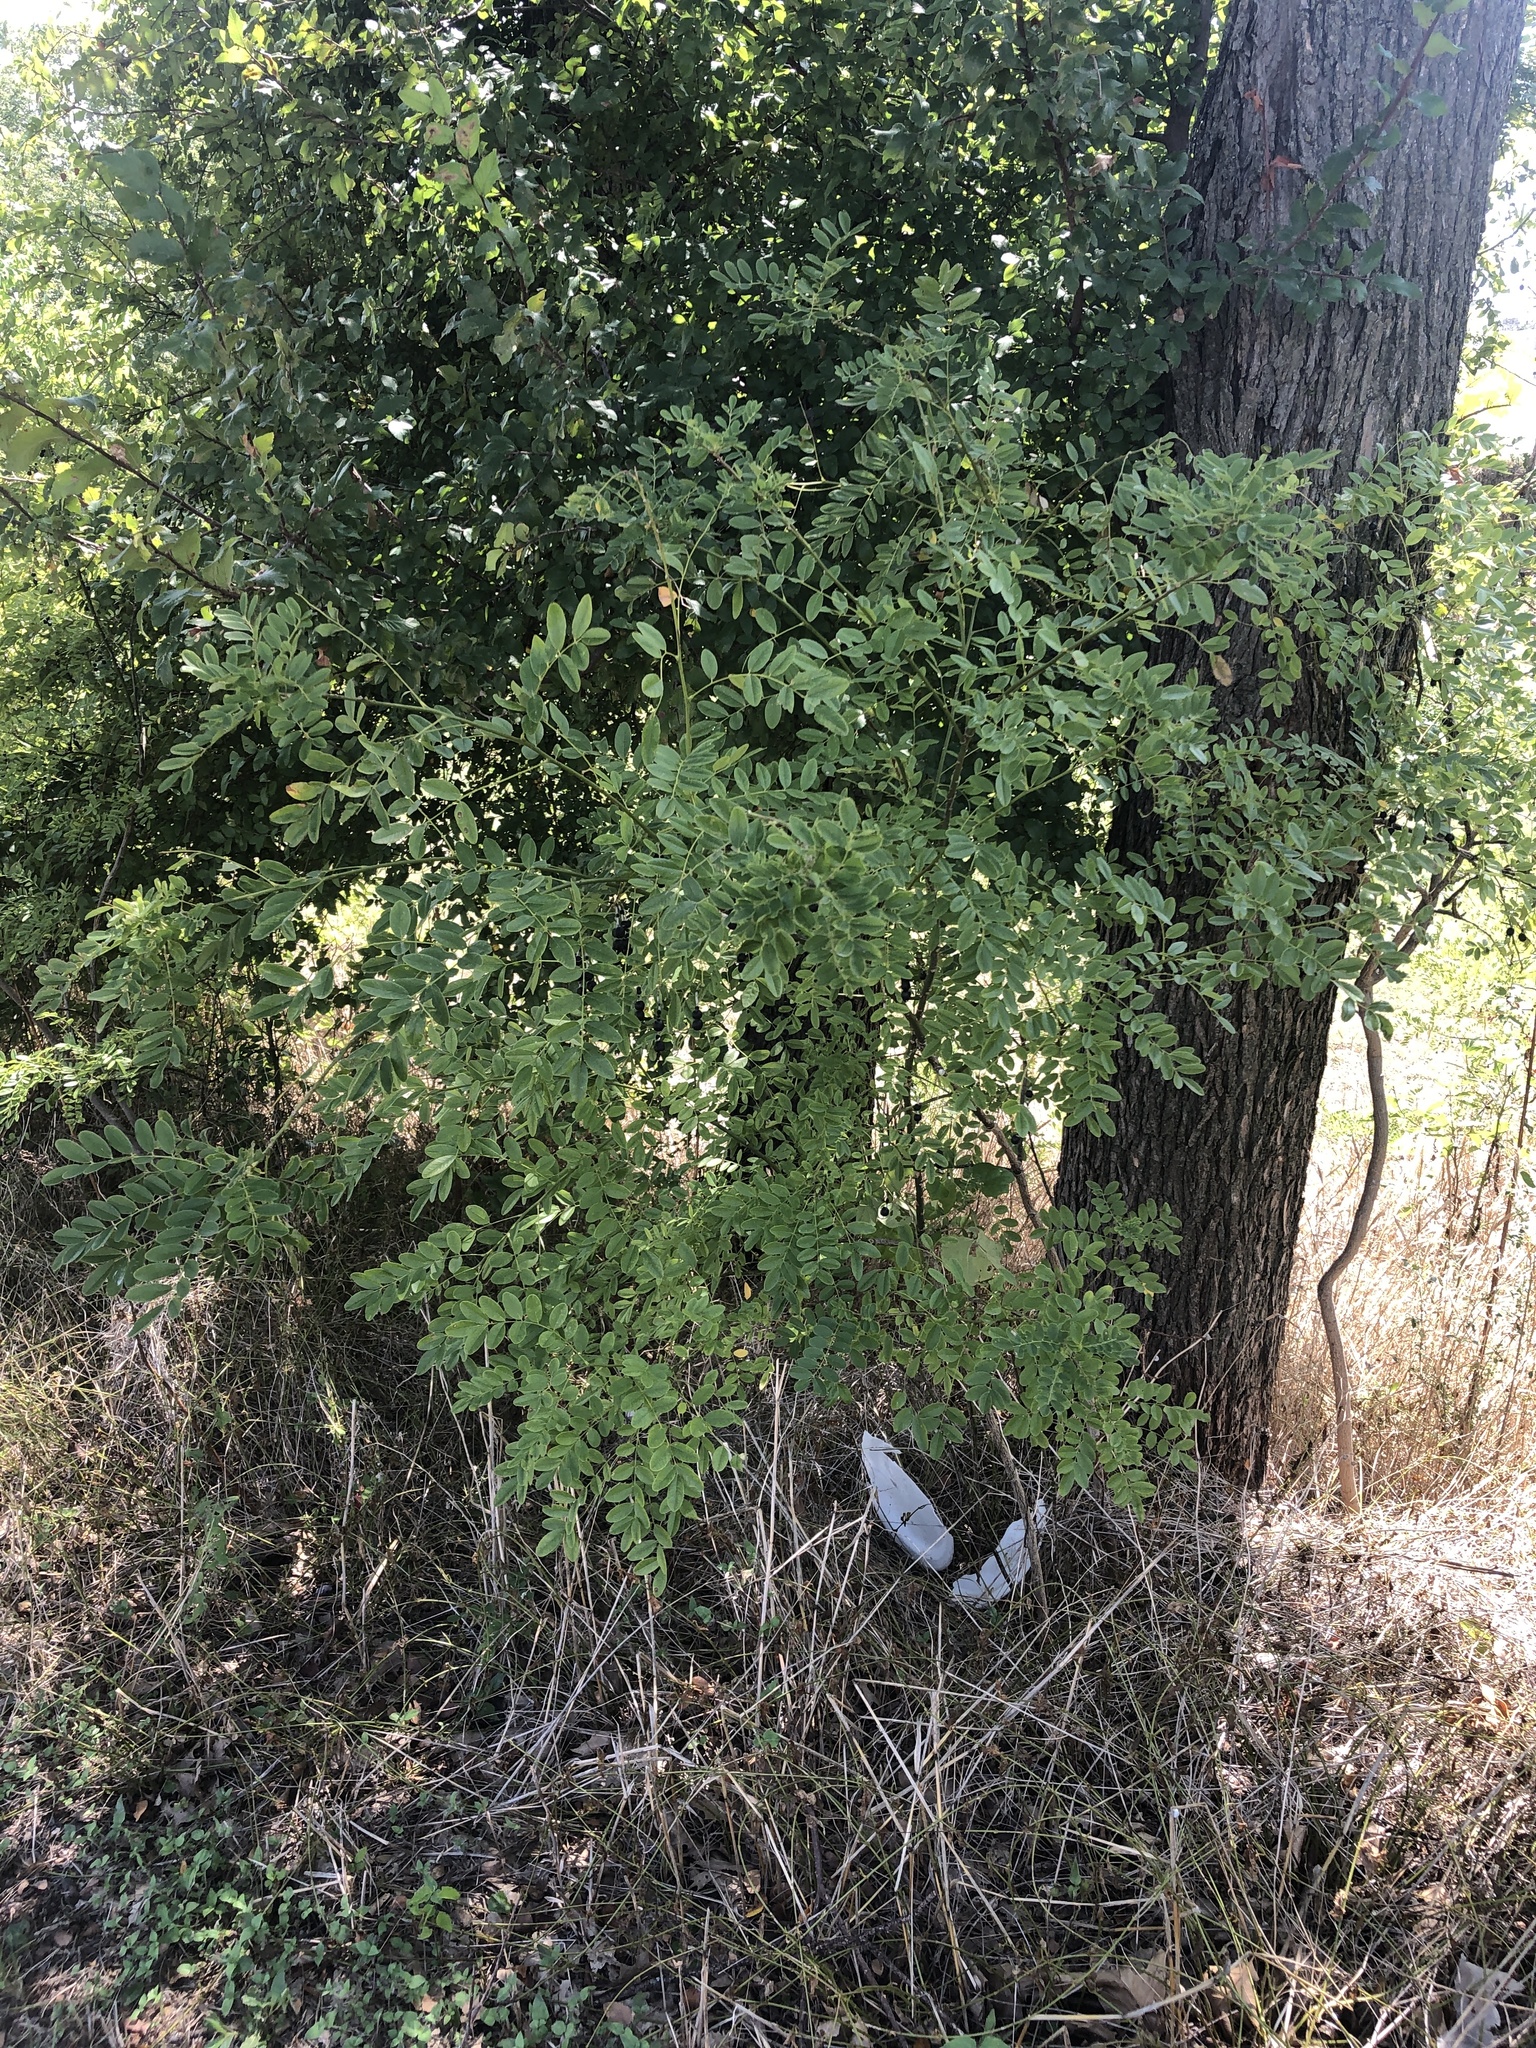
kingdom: Plantae
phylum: Tracheophyta
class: Magnoliopsida
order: Fabales
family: Fabaceae
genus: Styphnolobium
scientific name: Styphnolobium affine
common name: Texas sophora
